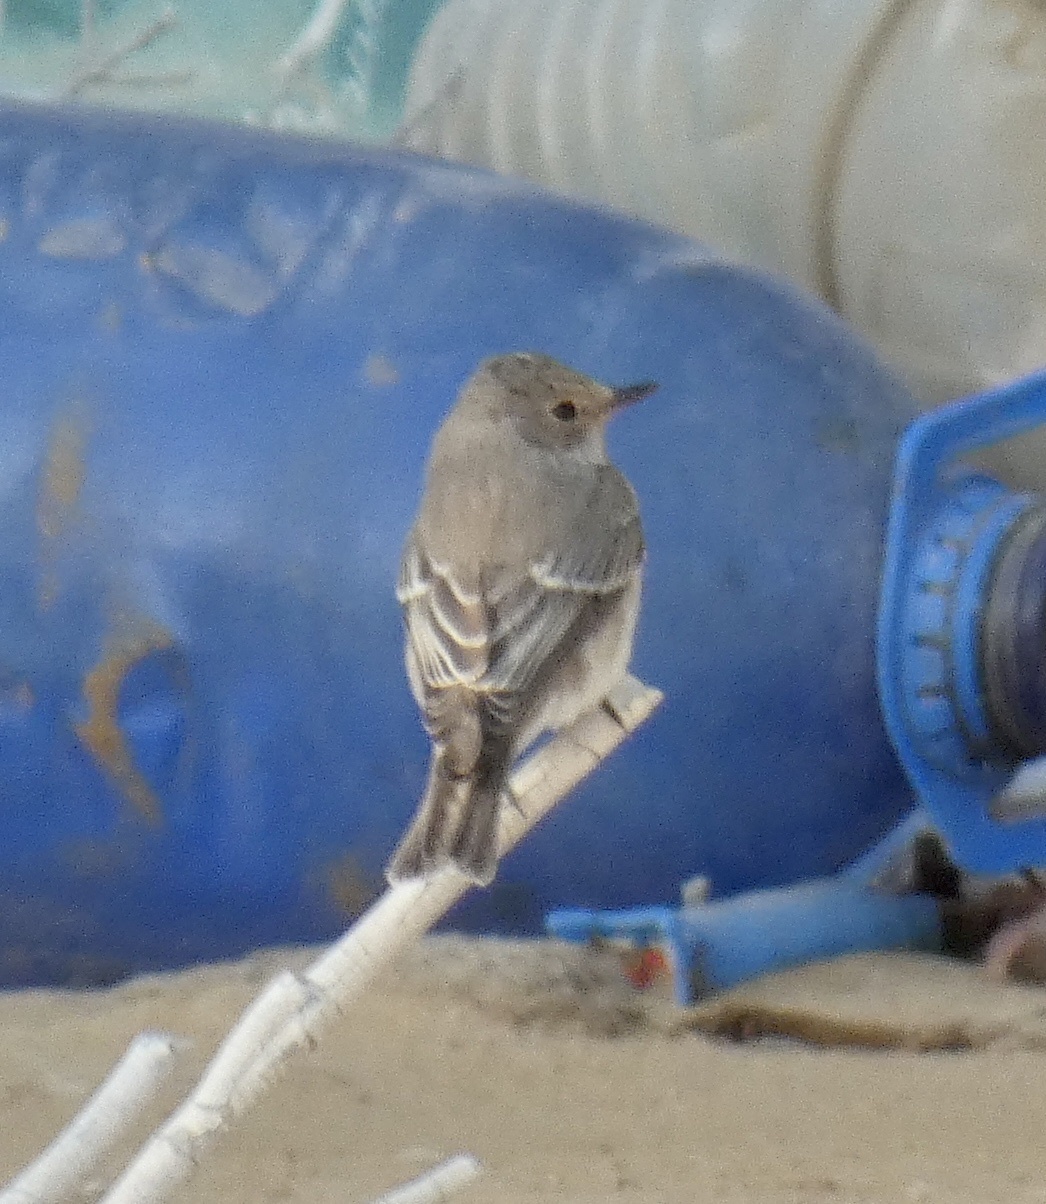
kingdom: Animalia
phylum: Chordata
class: Aves
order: Passeriformes
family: Muscicapidae
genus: Muscicapa
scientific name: Muscicapa striata
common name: Spotted flycatcher
